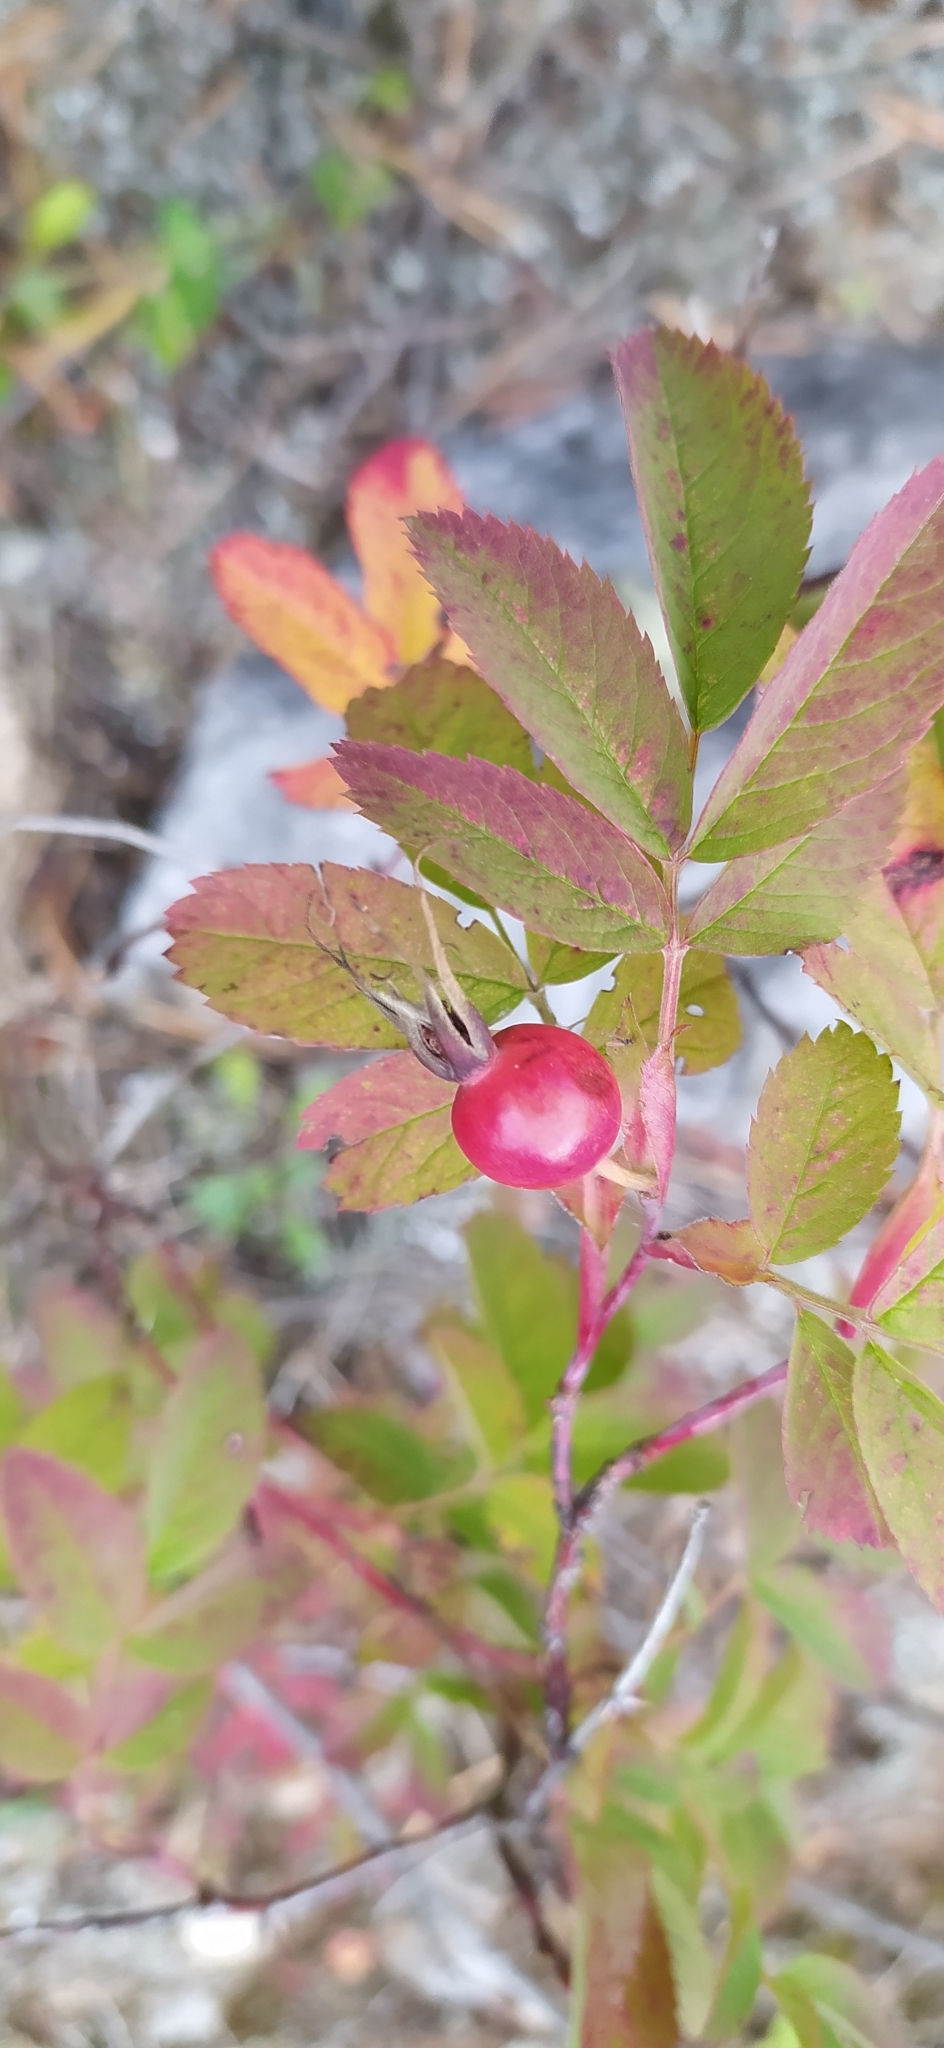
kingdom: Plantae
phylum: Tracheophyta
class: Magnoliopsida
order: Rosales
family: Rosaceae
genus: Rosa
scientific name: Rosa majalis
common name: Cinnamon rose
